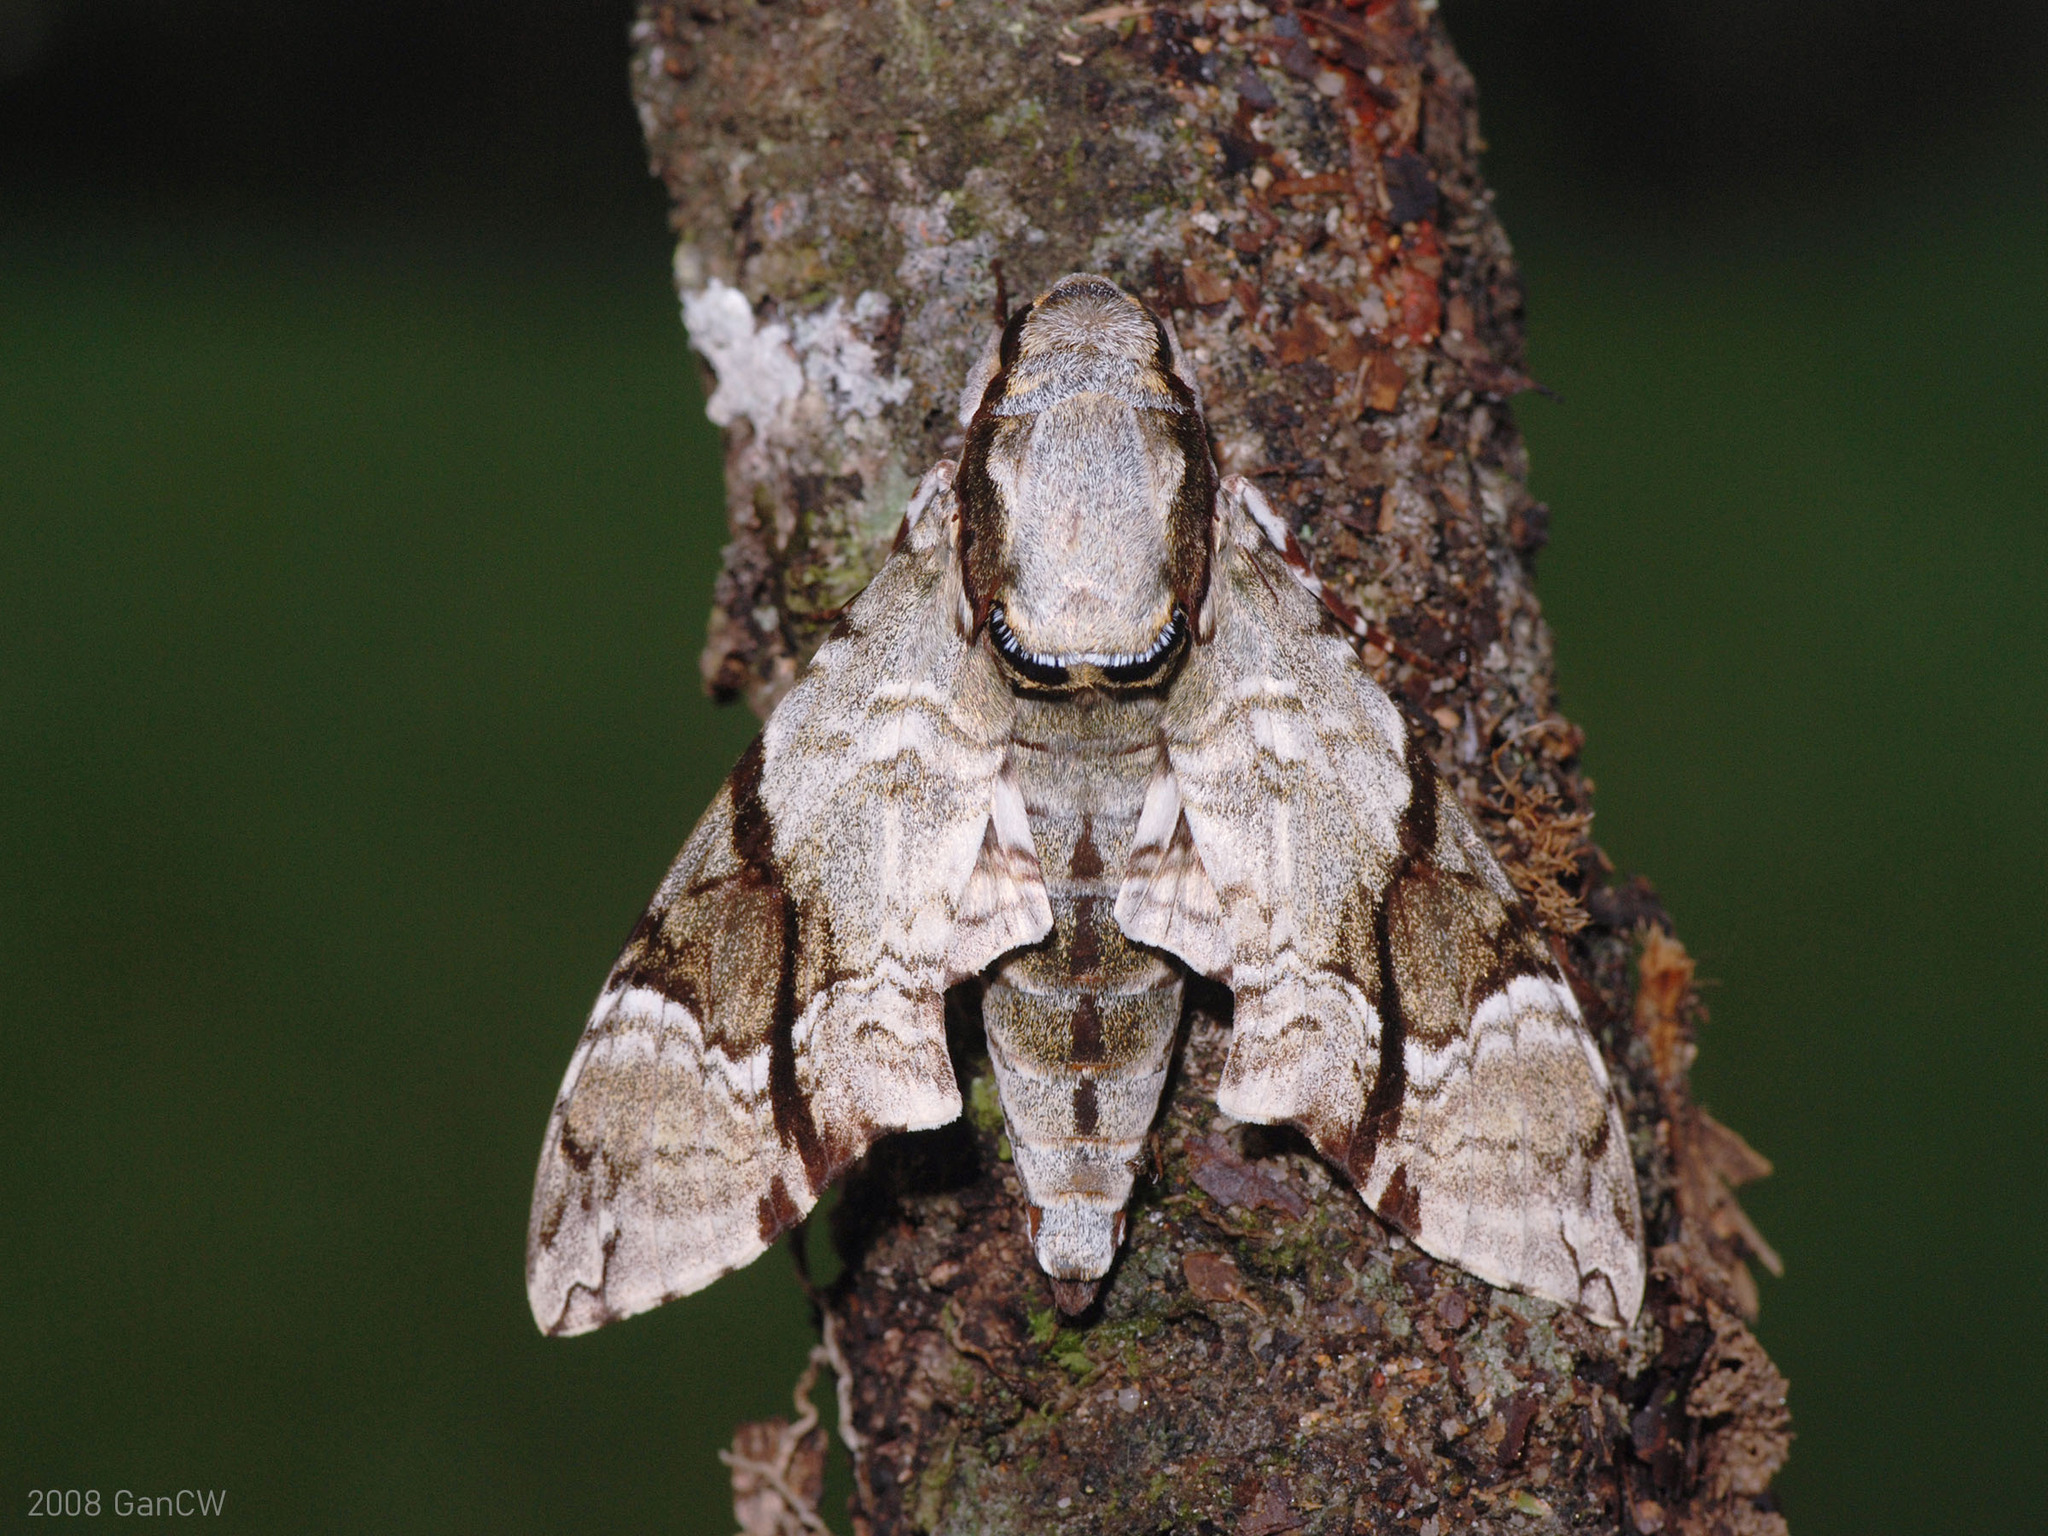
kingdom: Animalia
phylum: Arthropoda
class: Insecta
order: Lepidoptera
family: Sphingidae
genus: Megacorma
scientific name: Megacorma obliqua
